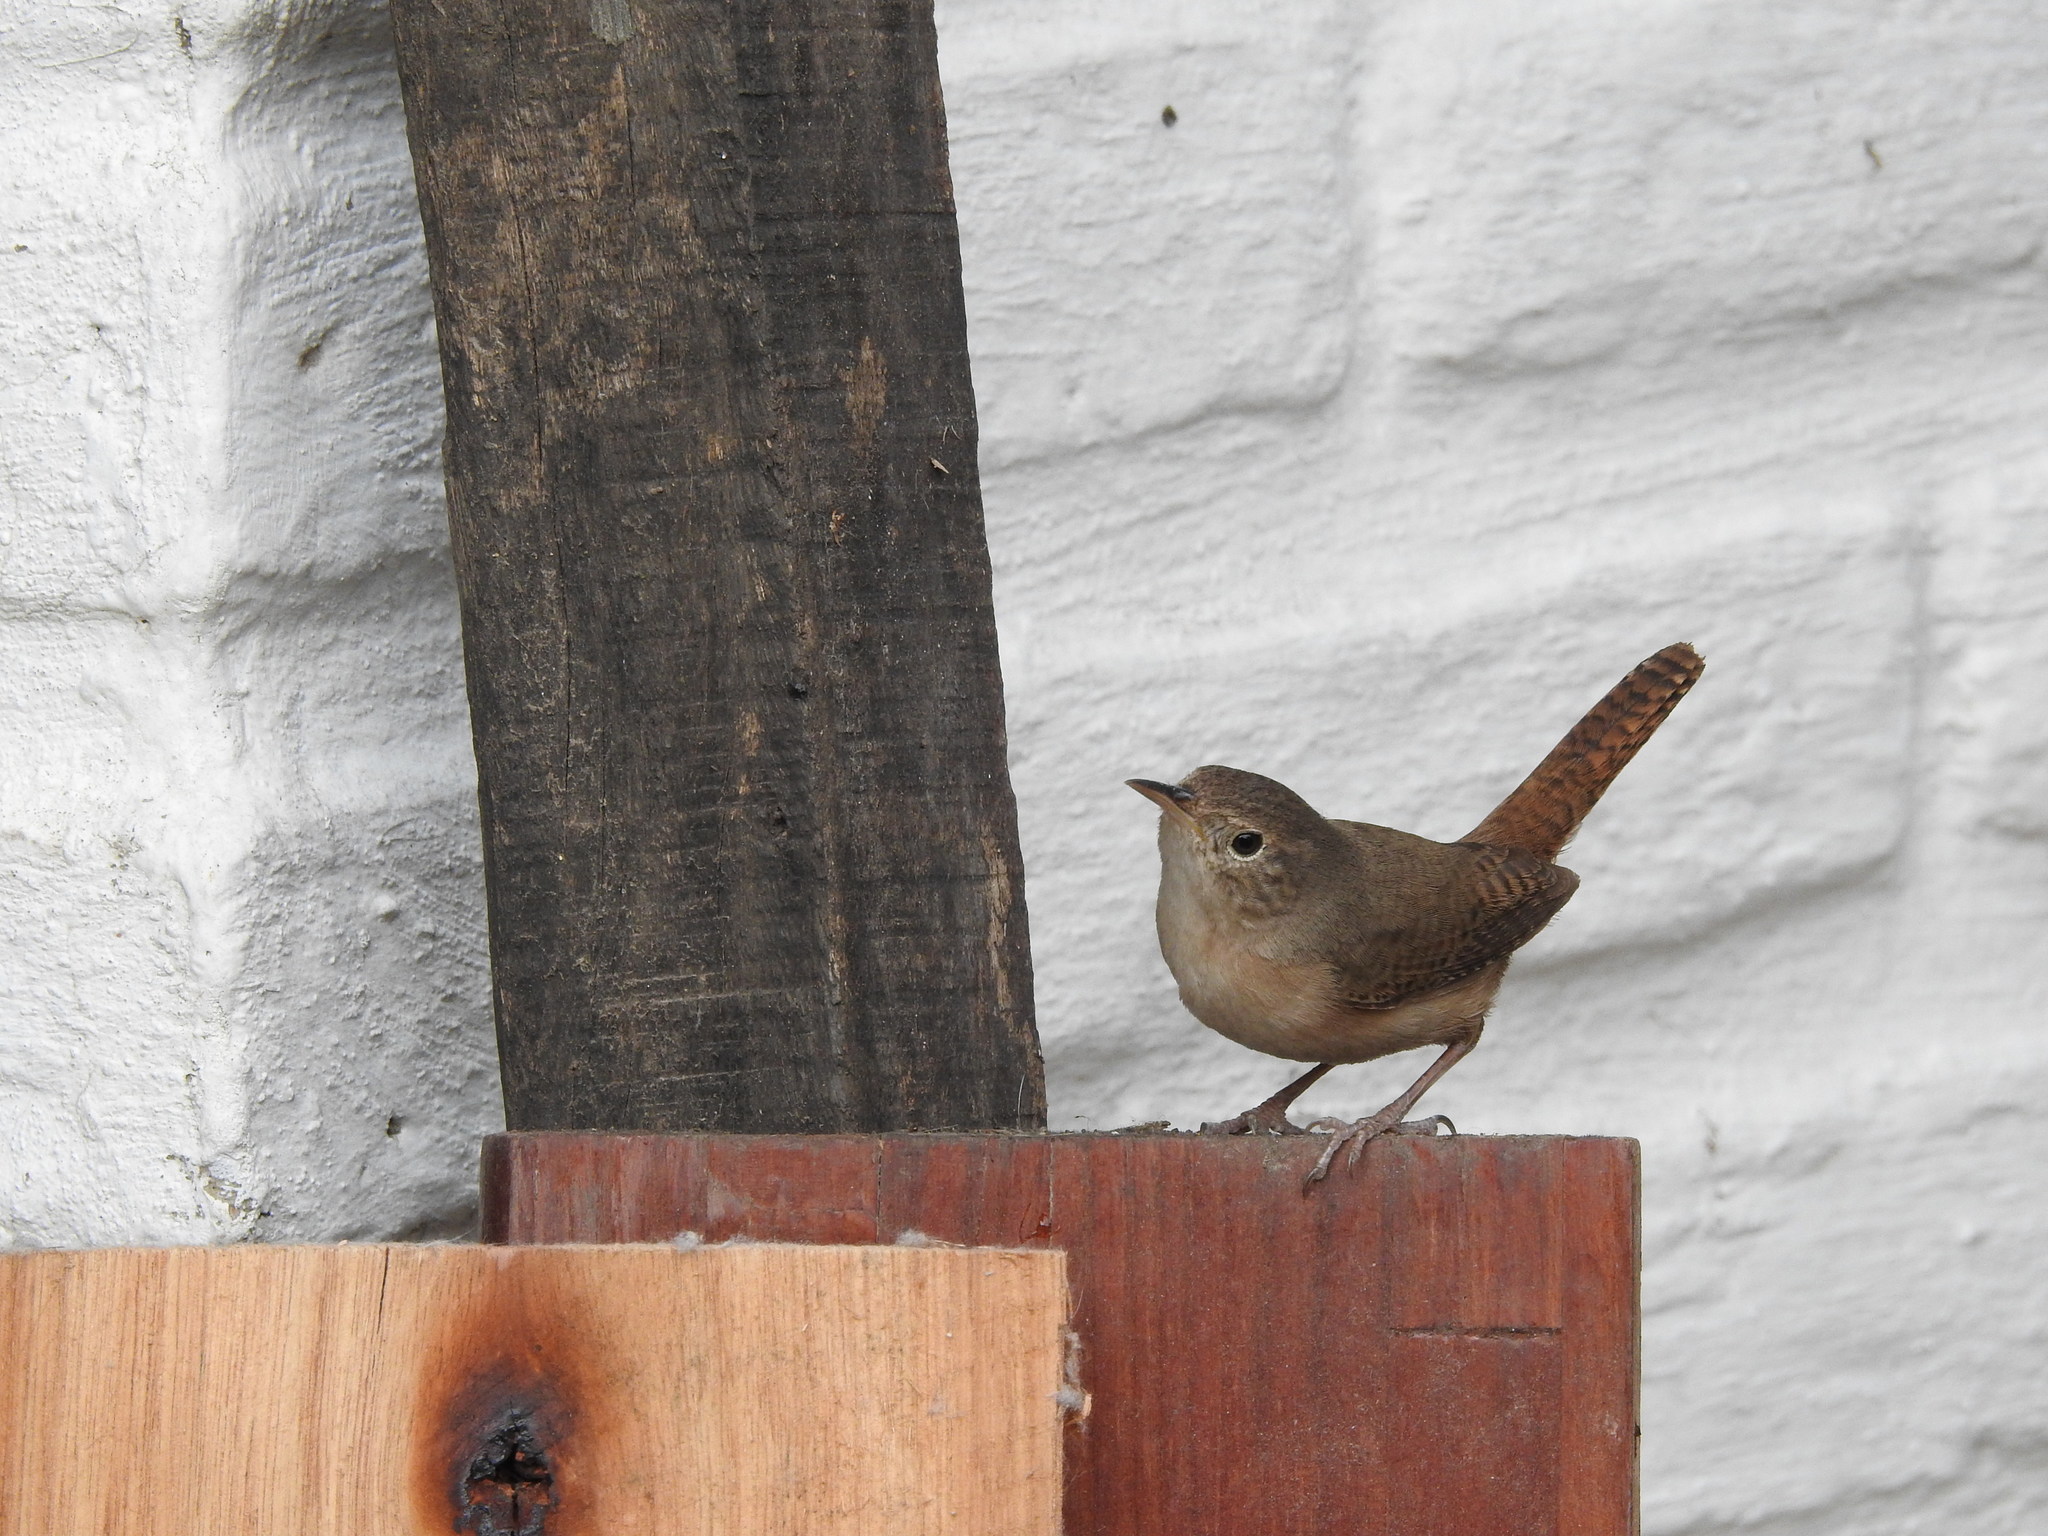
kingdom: Animalia
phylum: Chordata
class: Aves
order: Passeriformes
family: Troglodytidae
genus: Troglodytes
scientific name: Troglodytes aedon
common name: House wren
